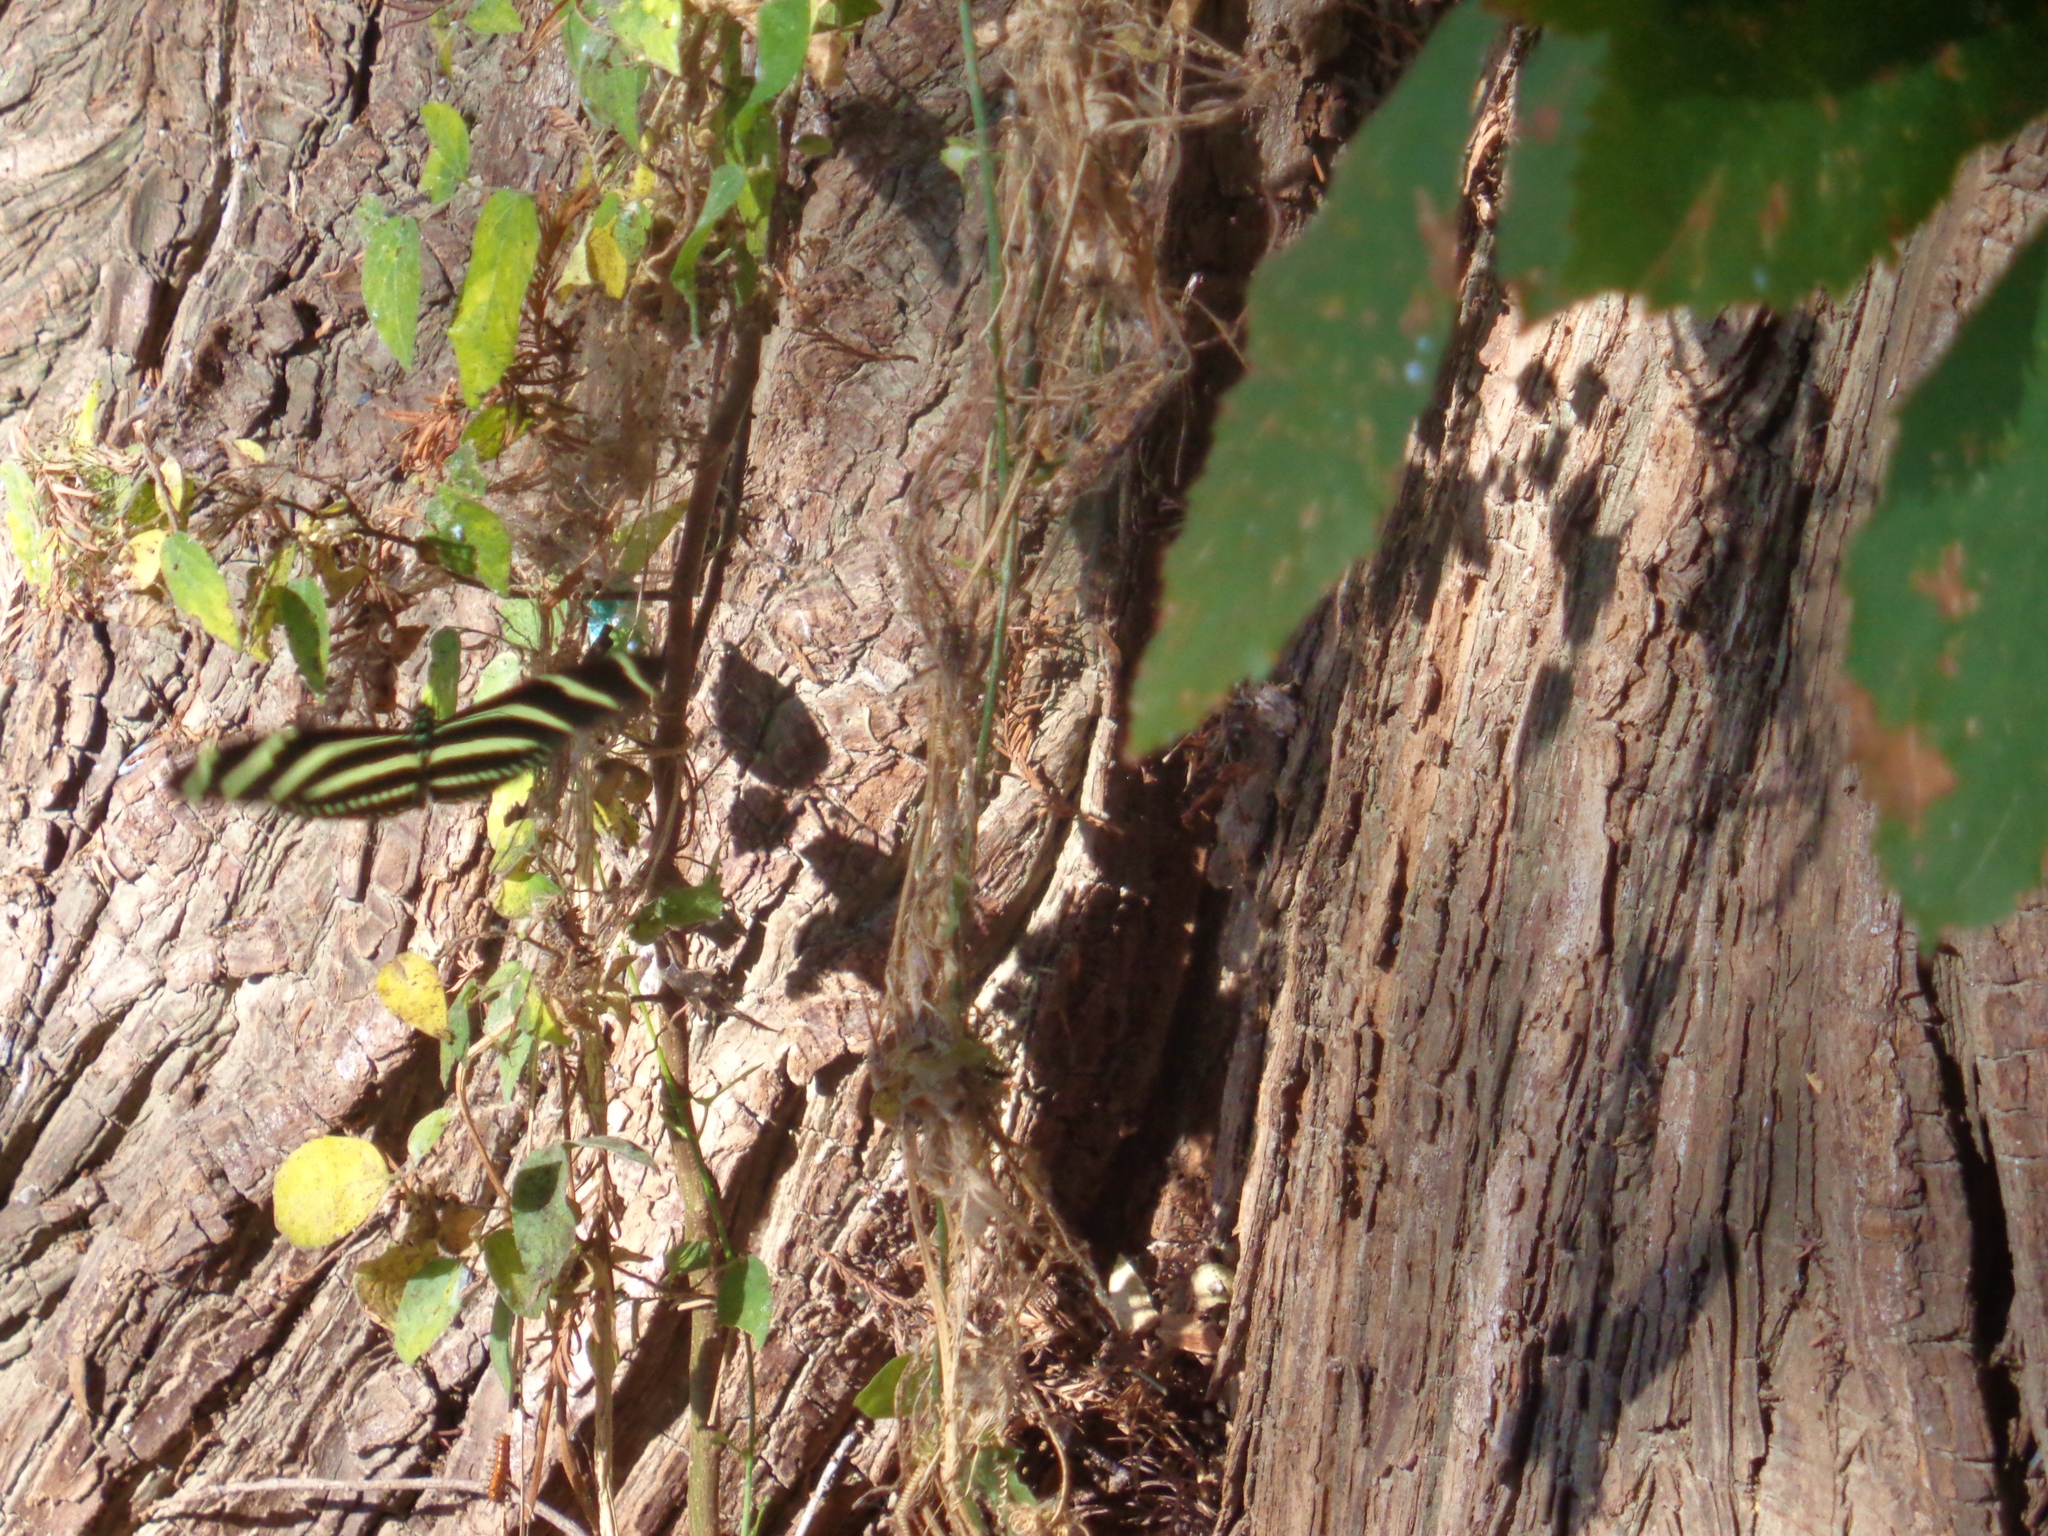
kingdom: Animalia
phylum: Arthropoda
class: Insecta
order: Lepidoptera
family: Nymphalidae
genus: Heliconius
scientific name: Heliconius charithonia
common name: Zebra long wing
